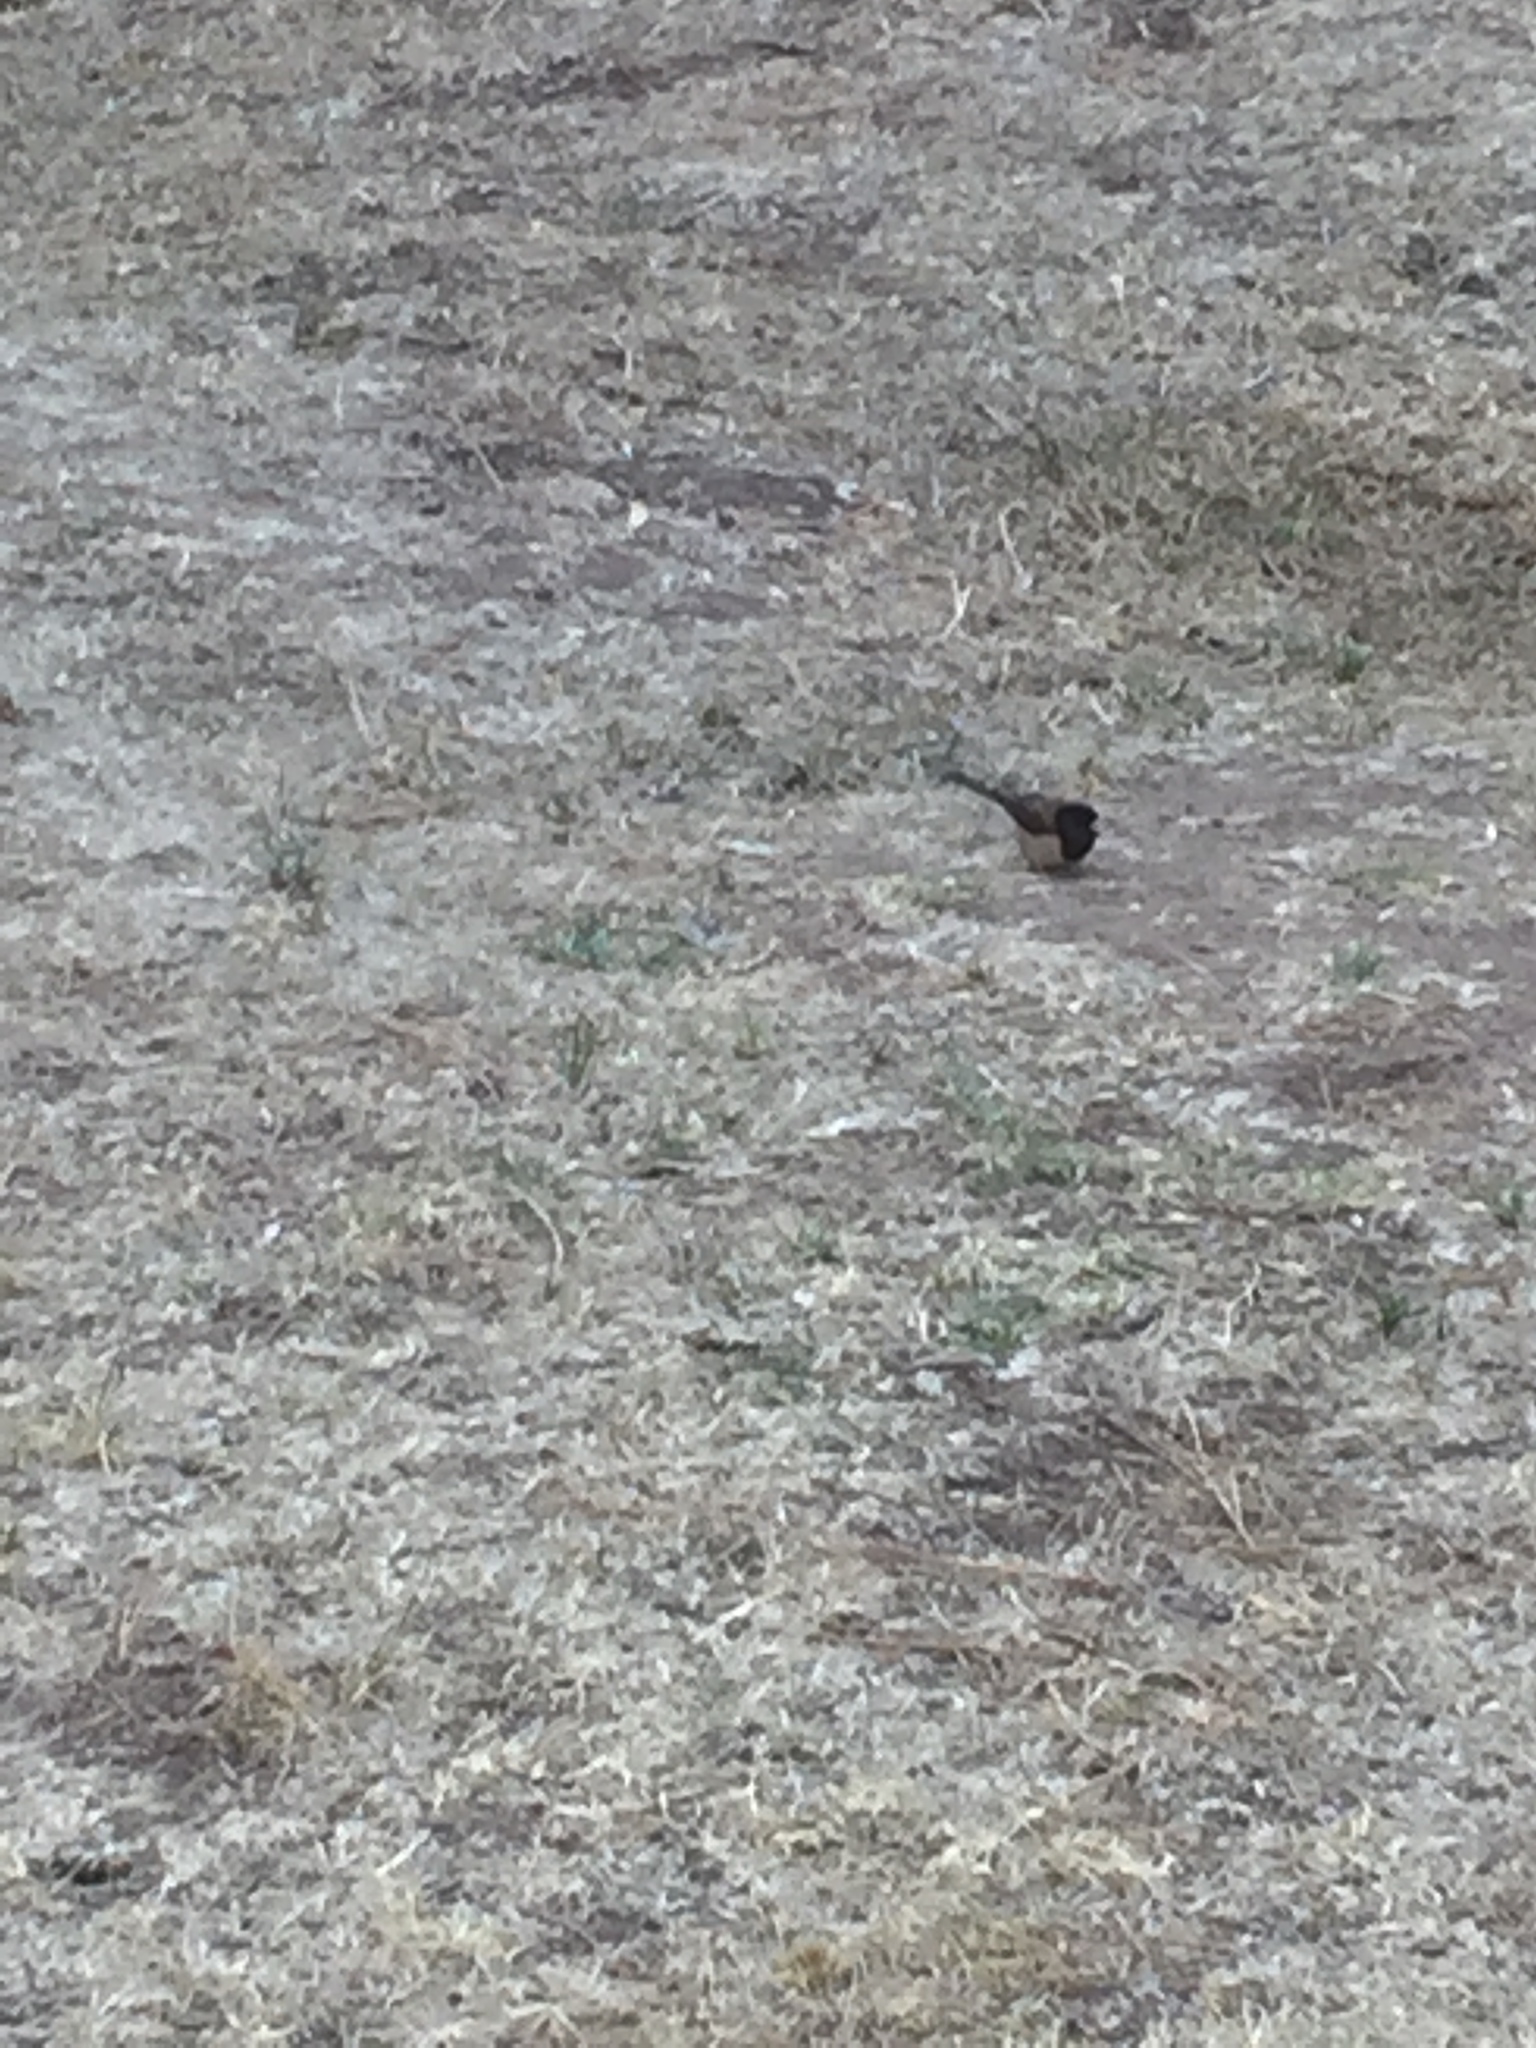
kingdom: Animalia
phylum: Chordata
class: Aves
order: Passeriformes
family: Passerellidae
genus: Junco
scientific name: Junco hyemalis
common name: Dark-eyed junco
